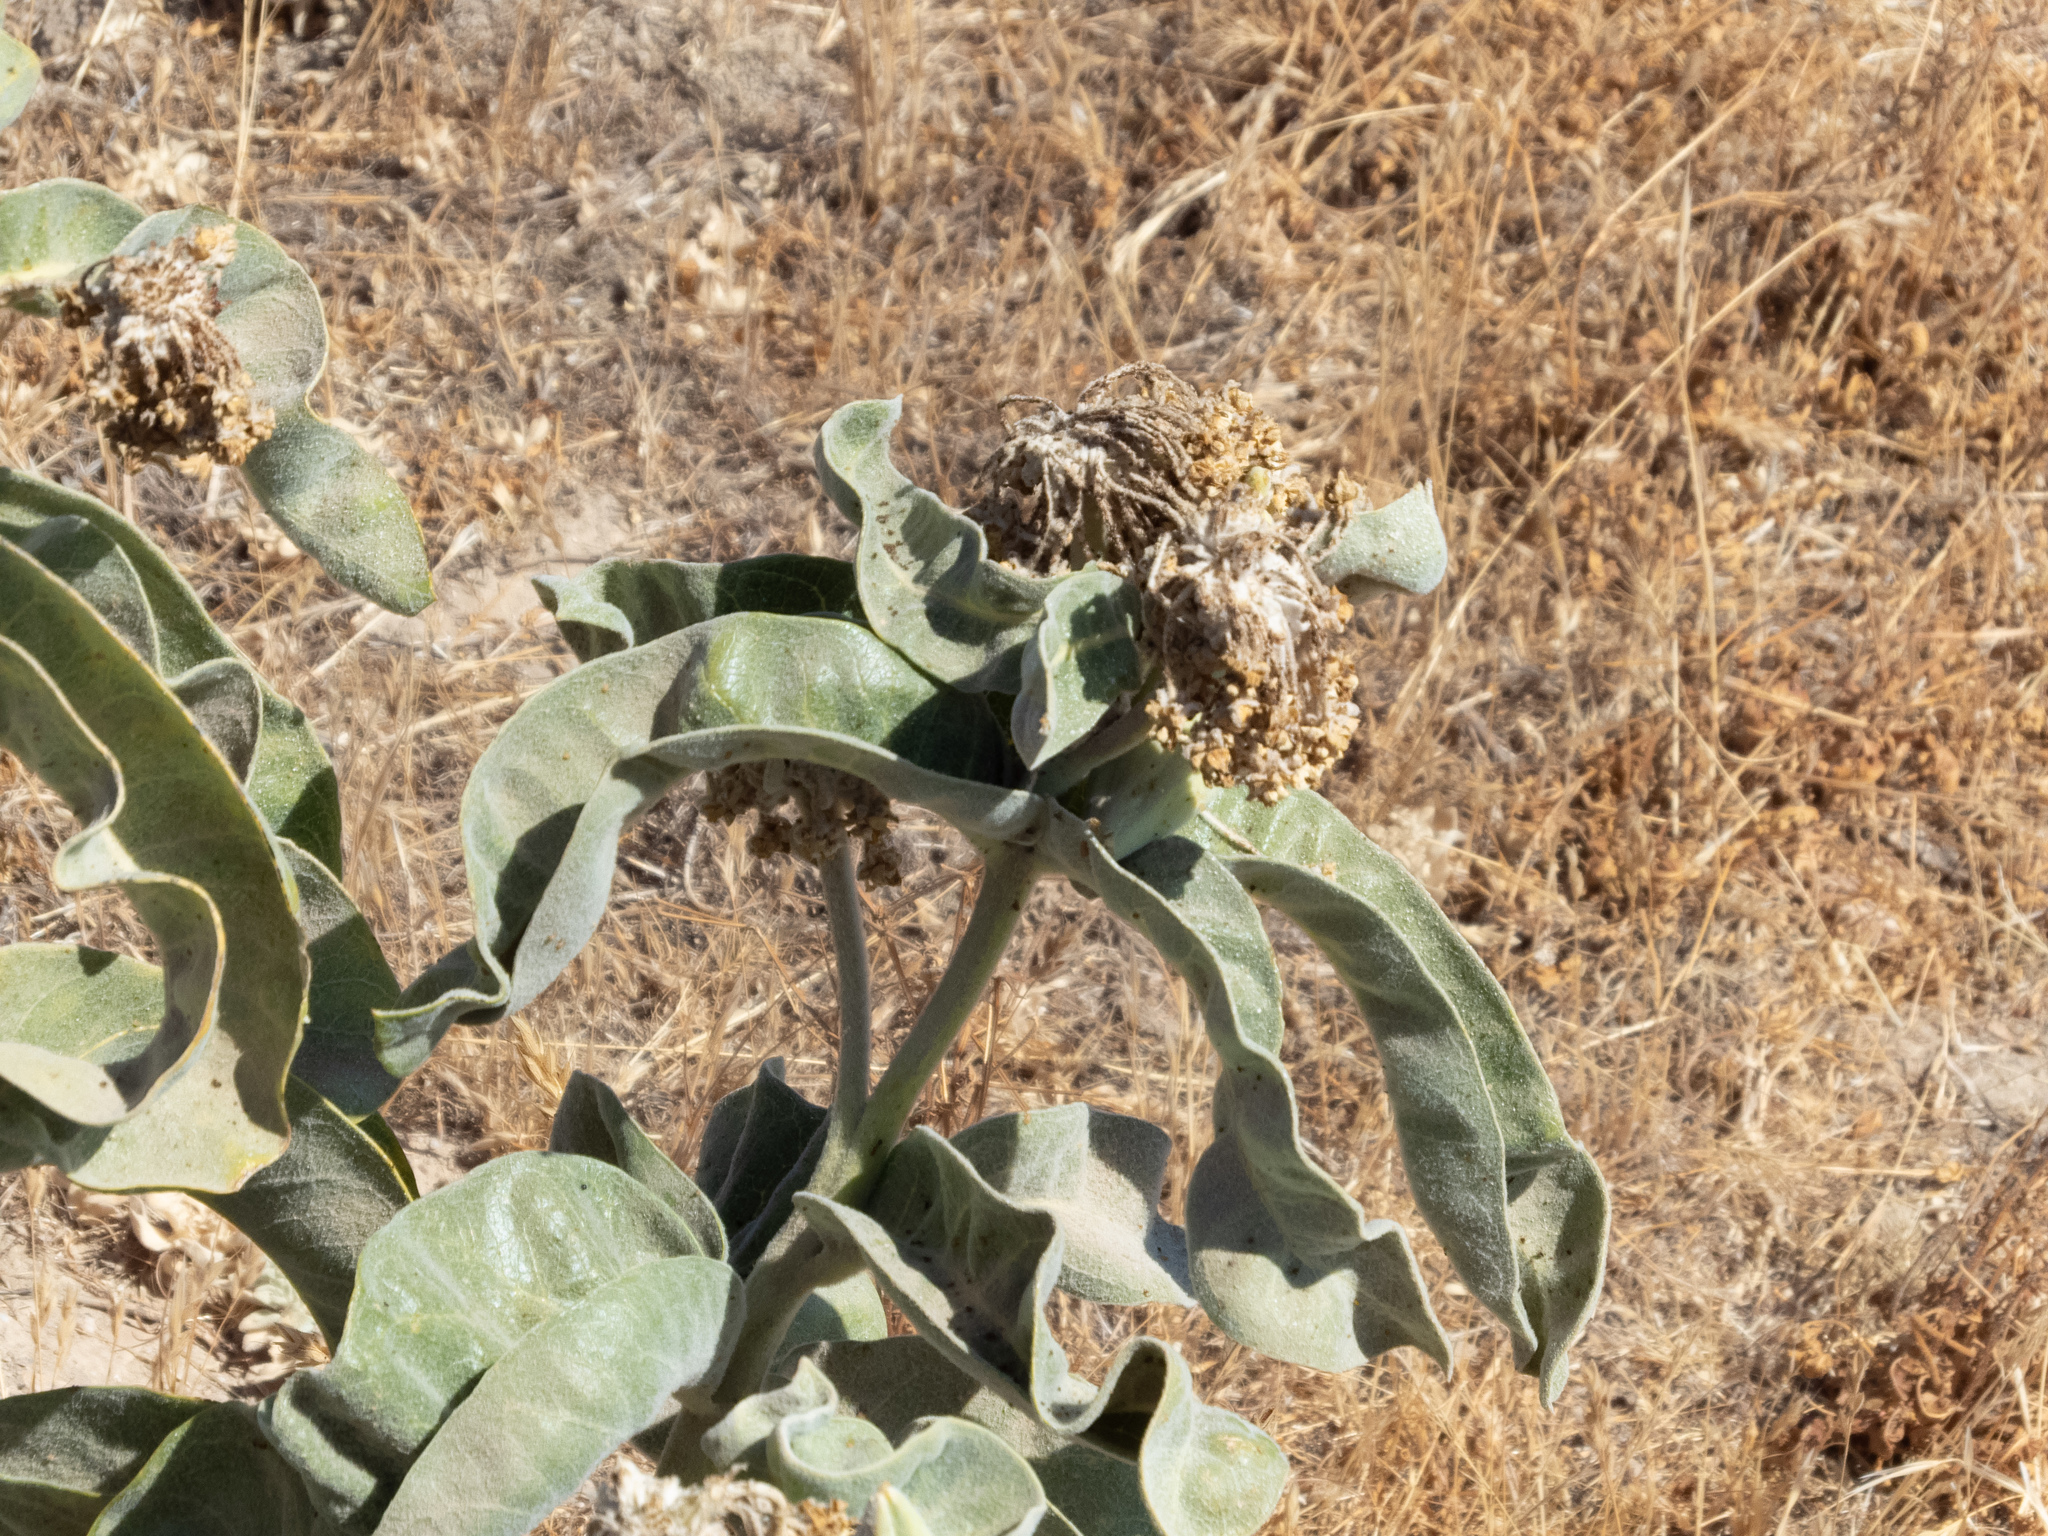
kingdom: Plantae
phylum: Tracheophyta
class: Magnoliopsida
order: Gentianales
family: Apocynaceae
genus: Asclepias
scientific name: Asclepias eriocarpa
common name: Indian milkweed
